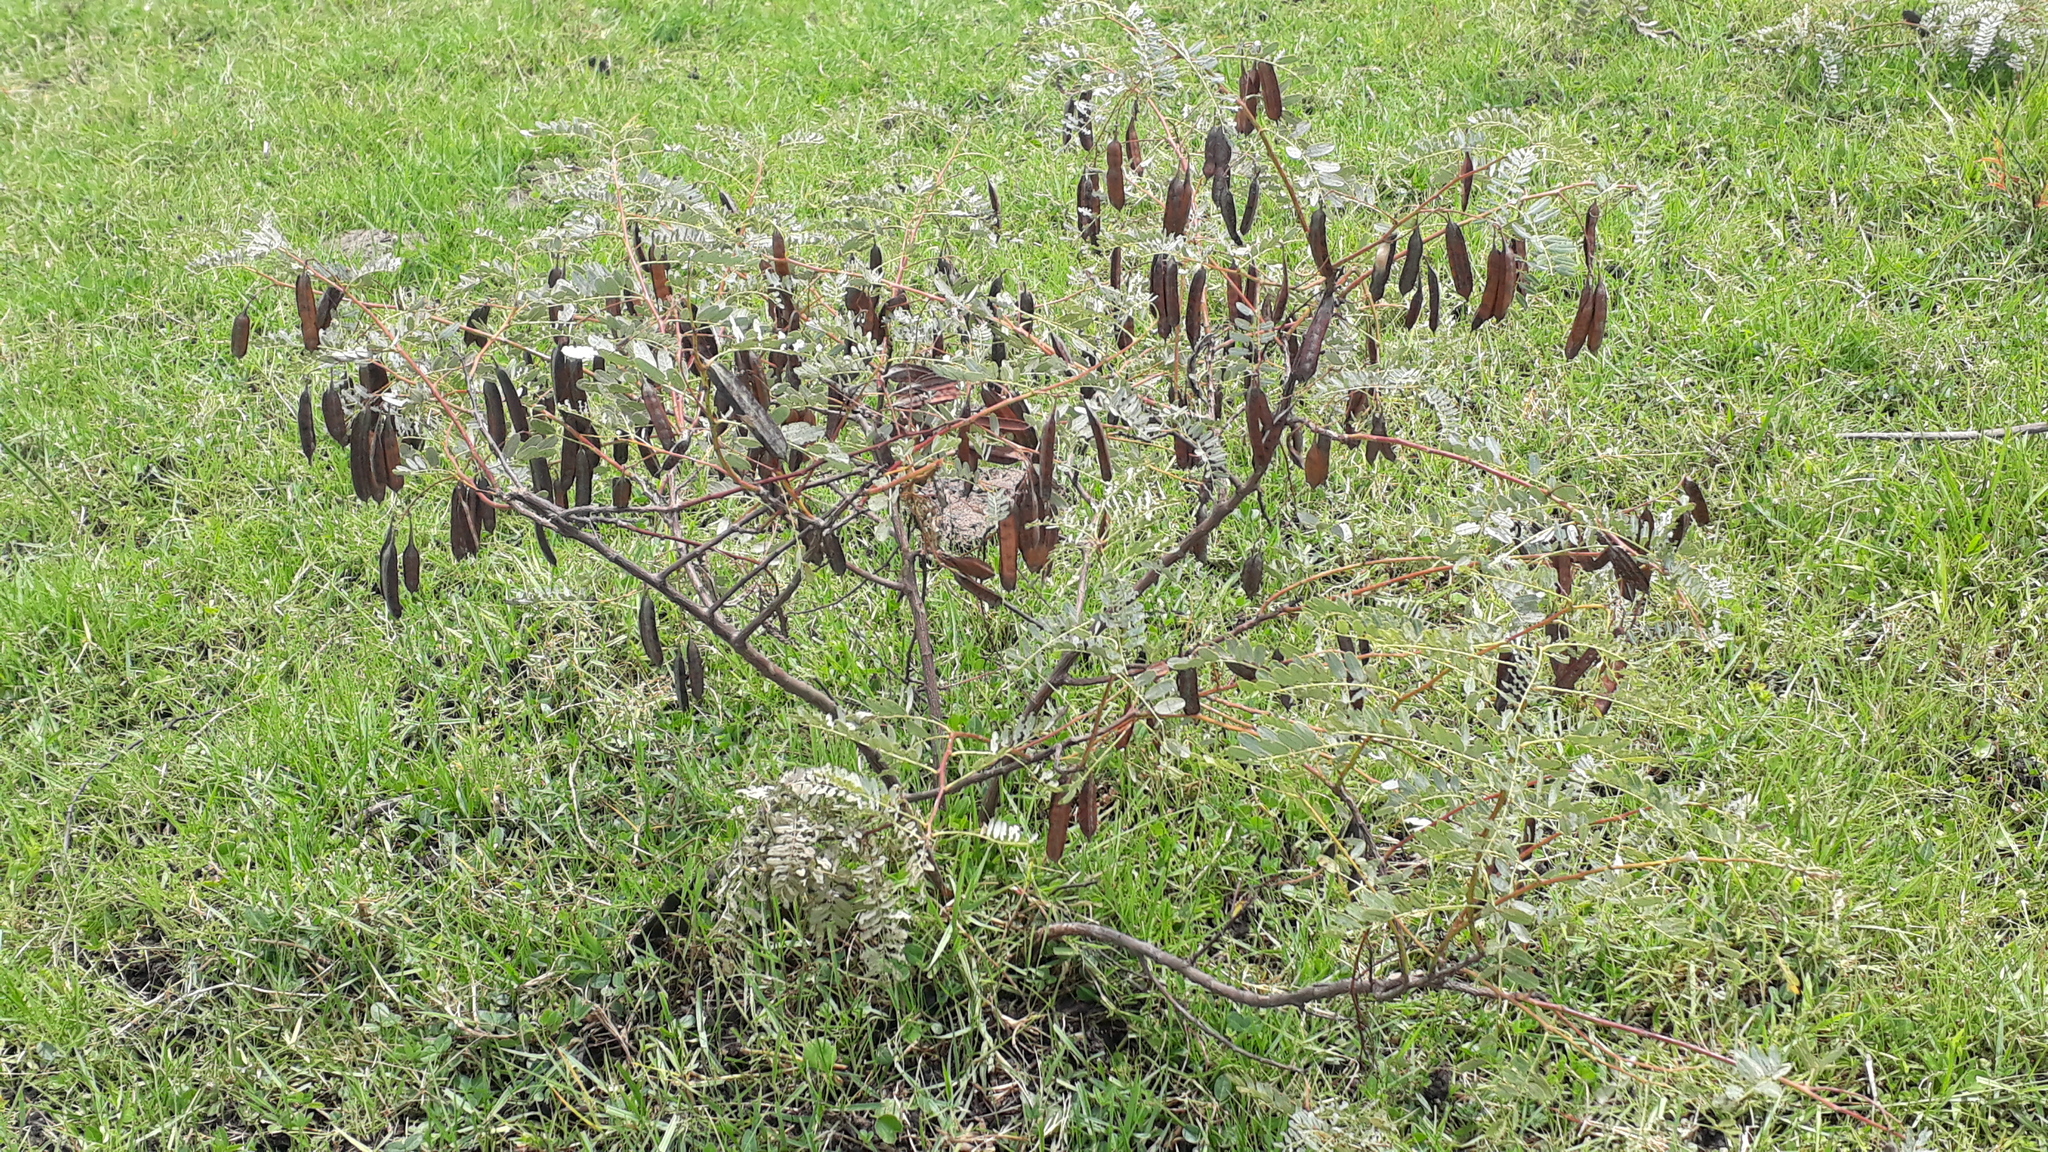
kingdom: Plantae
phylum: Tracheophyta
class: Magnoliopsida
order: Fabales
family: Fabaceae
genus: Sesbania
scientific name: Sesbania punicea
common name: Rattlebox
